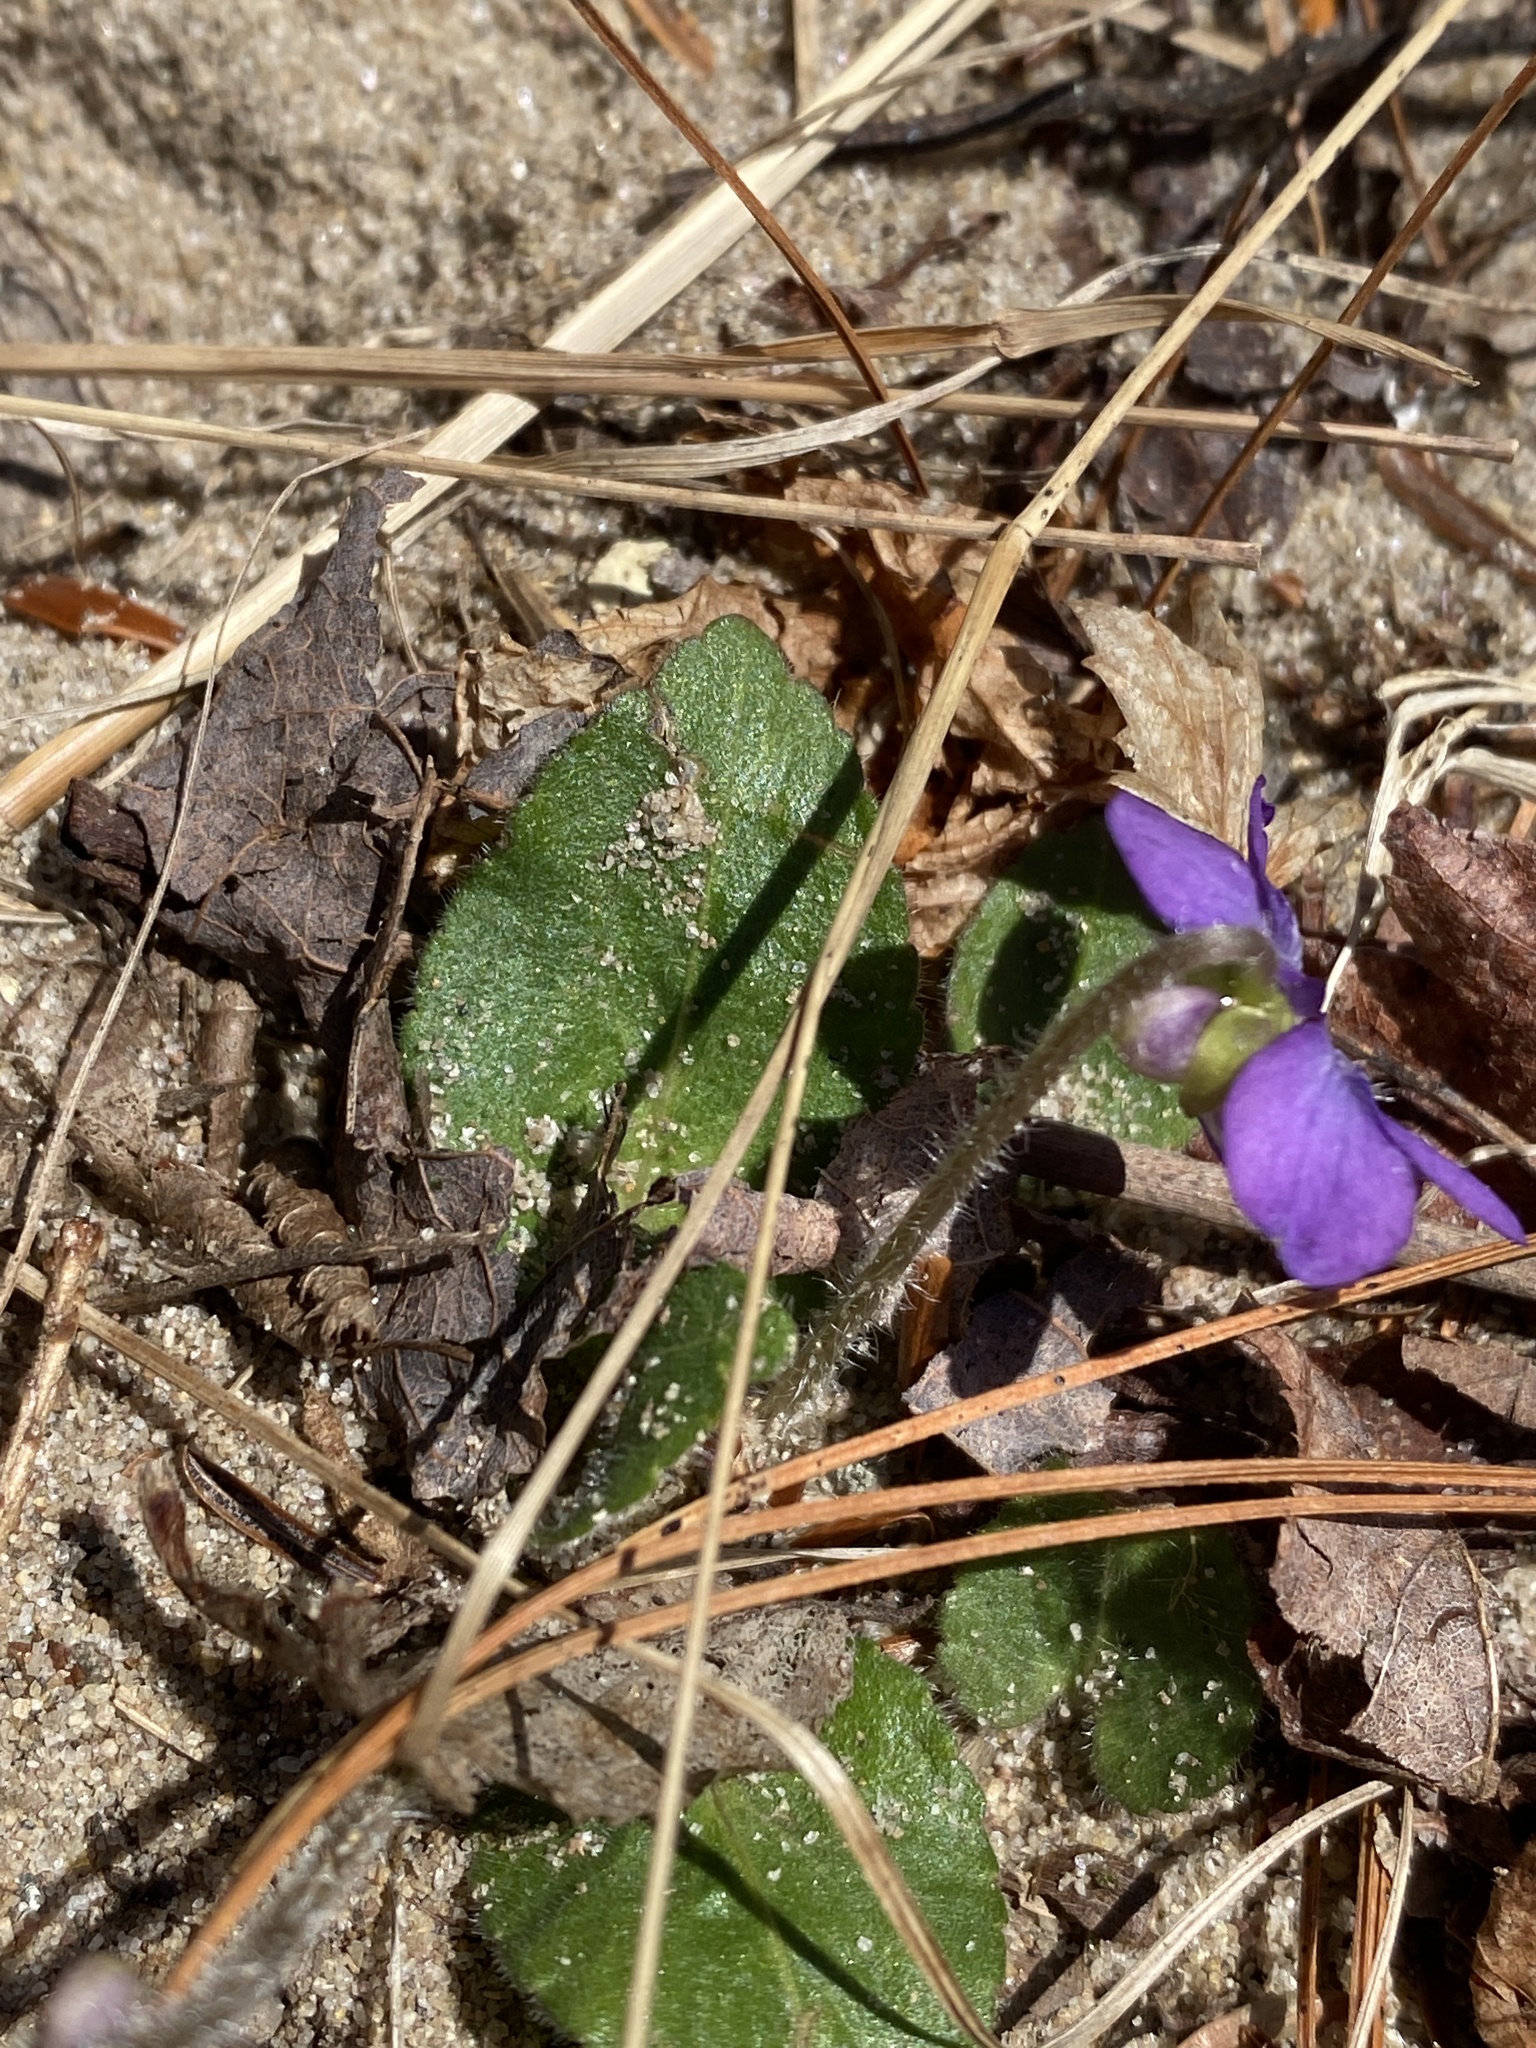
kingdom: Plantae
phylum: Tracheophyta
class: Magnoliopsida
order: Malpighiales
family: Violaceae
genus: Viola
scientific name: Viola sagittata
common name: Arrowhead violet
